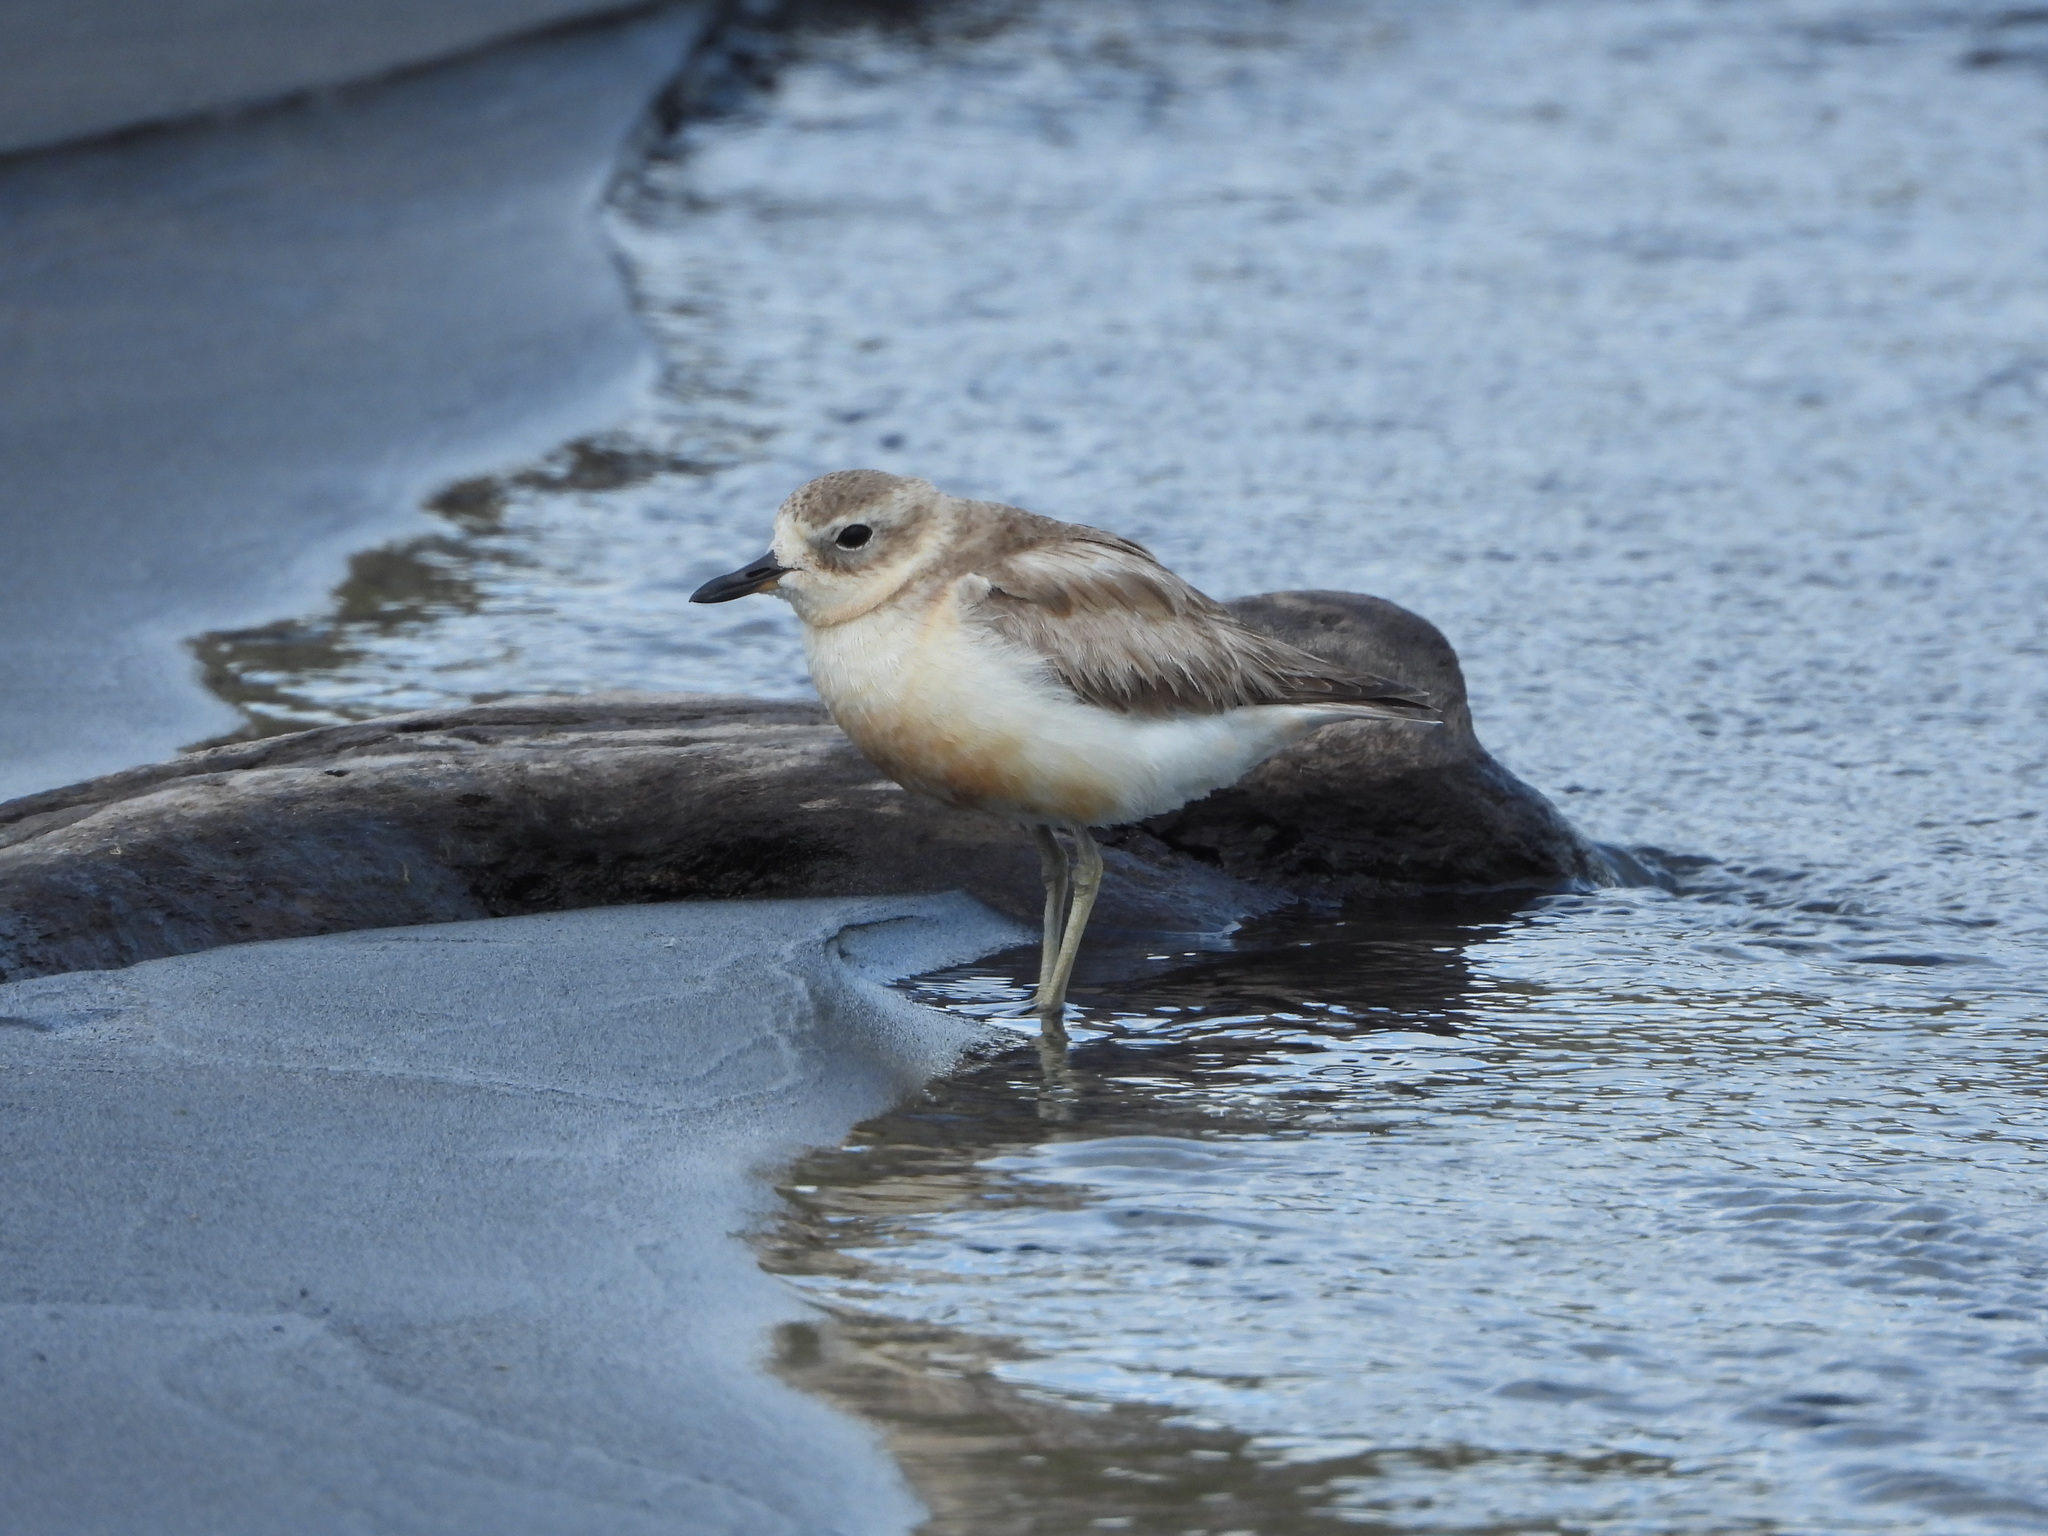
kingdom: Animalia
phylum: Chordata
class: Aves
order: Charadriiformes
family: Charadriidae
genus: Anarhynchus
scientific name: Anarhynchus
